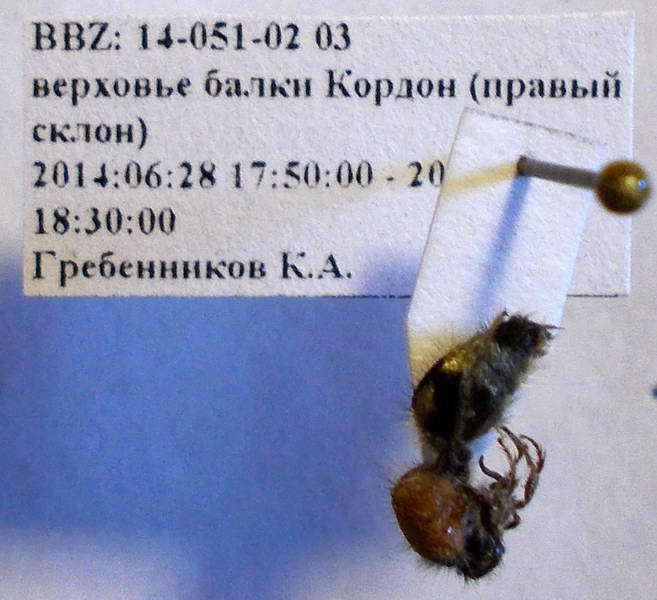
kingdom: Animalia
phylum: Arthropoda
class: Insecta
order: Hymenoptera
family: Mutillidae
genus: Nemka
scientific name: Nemka viduata
